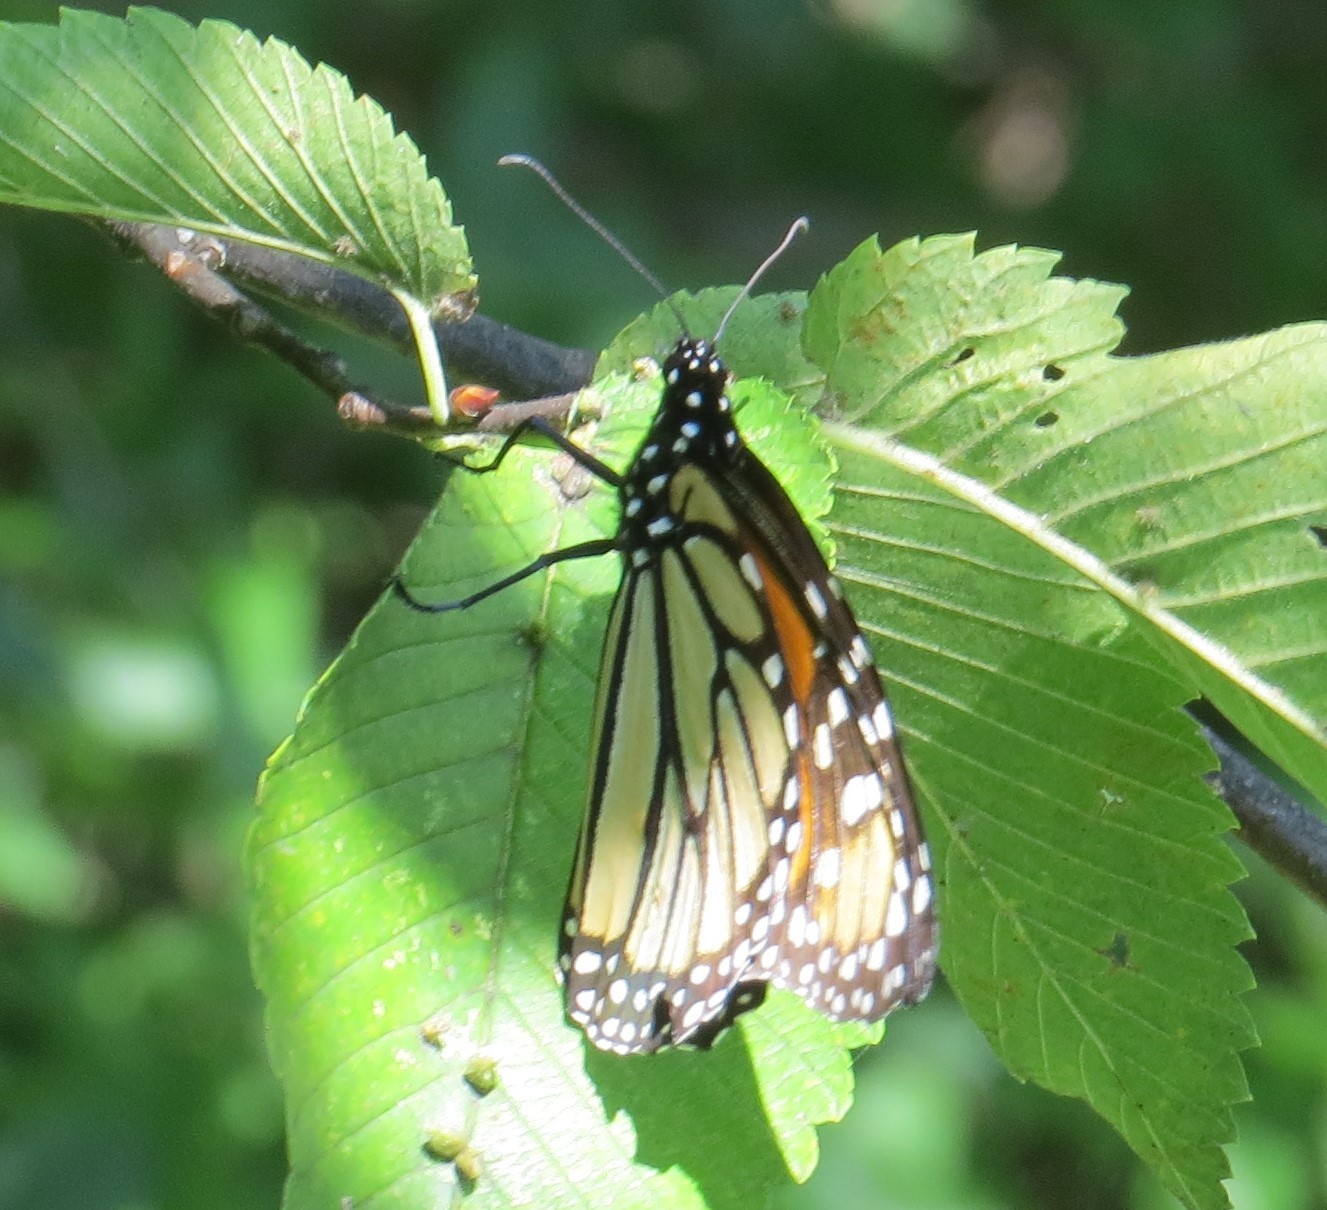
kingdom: Animalia
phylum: Arthropoda
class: Insecta
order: Lepidoptera
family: Nymphalidae
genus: Danaus
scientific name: Danaus plexippus
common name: Monarch
